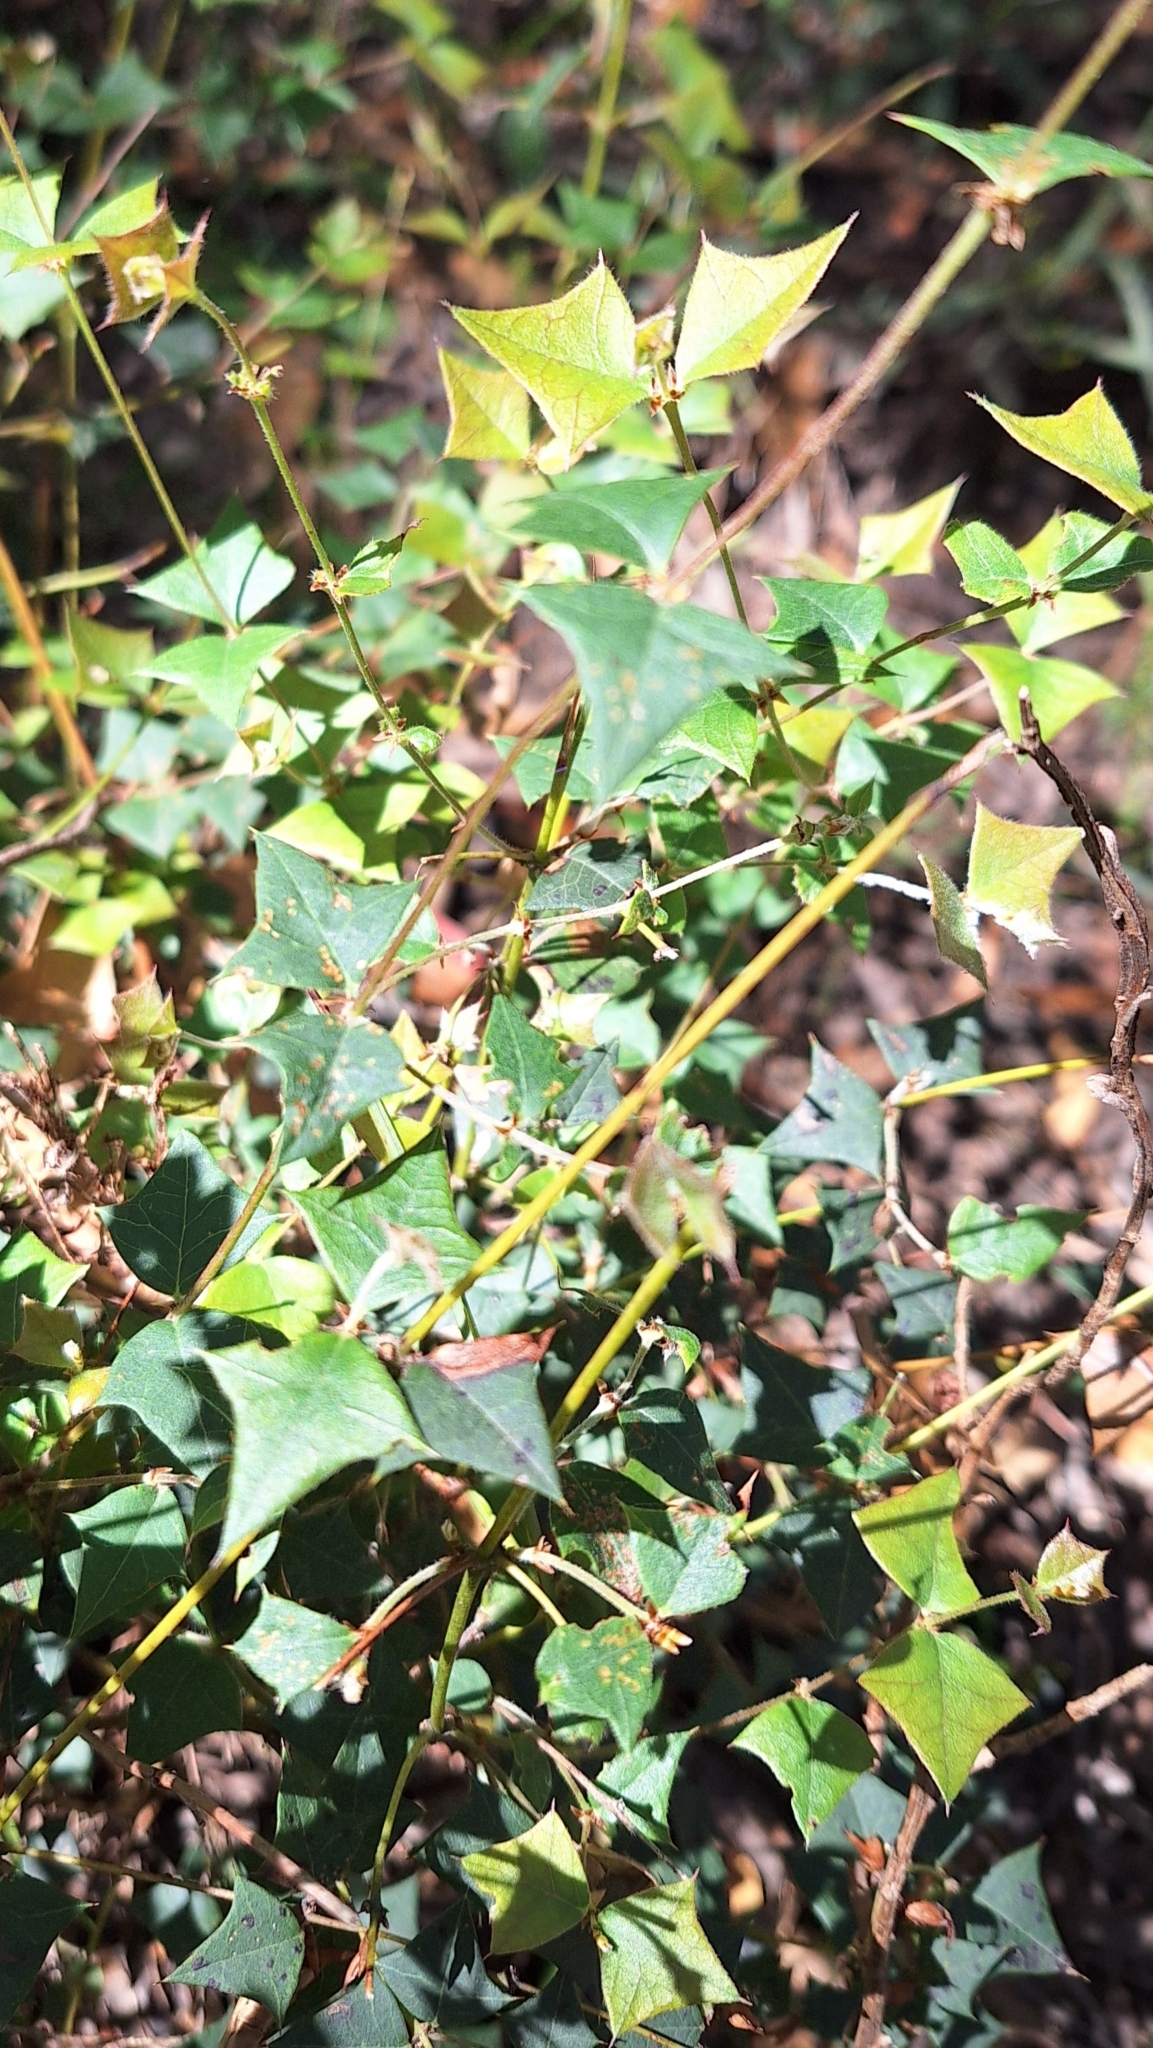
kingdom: Plantae
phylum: Tracheophyta
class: Magnoliopsida
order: Fabales
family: Fabaceae
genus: Platylobium
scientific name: Platylobium obtusangulum
